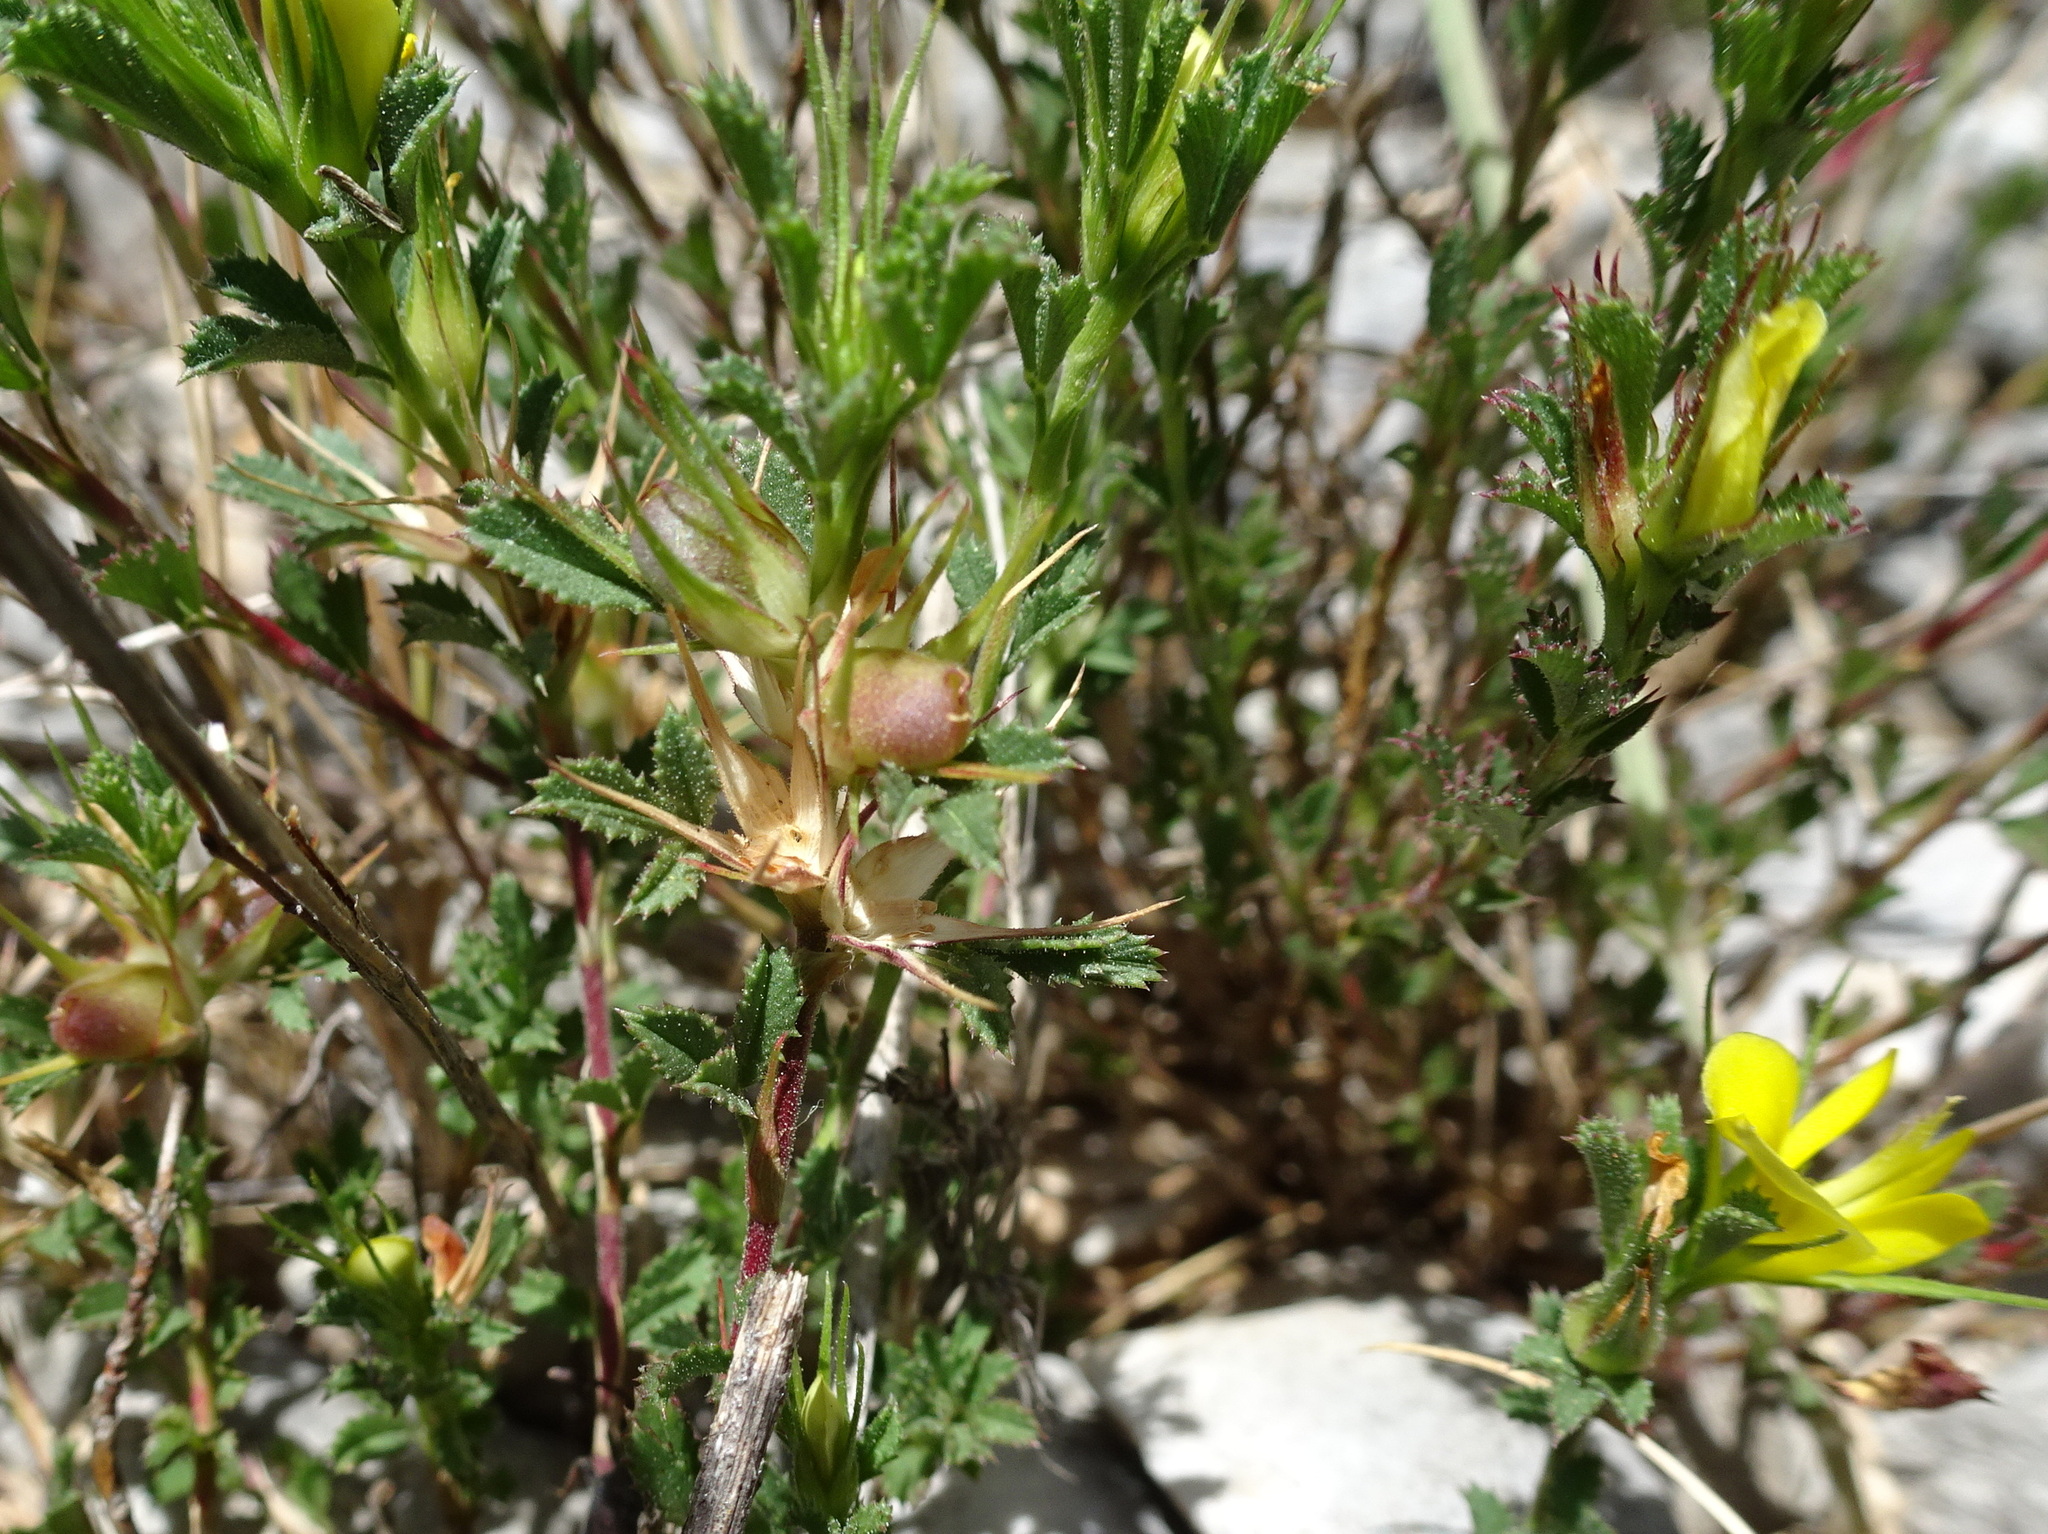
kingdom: Plantae
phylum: Tracheophyta
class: Magnoliopsida
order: Fabales
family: Fabaceae
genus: Ononis
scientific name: Ononis minutissima
